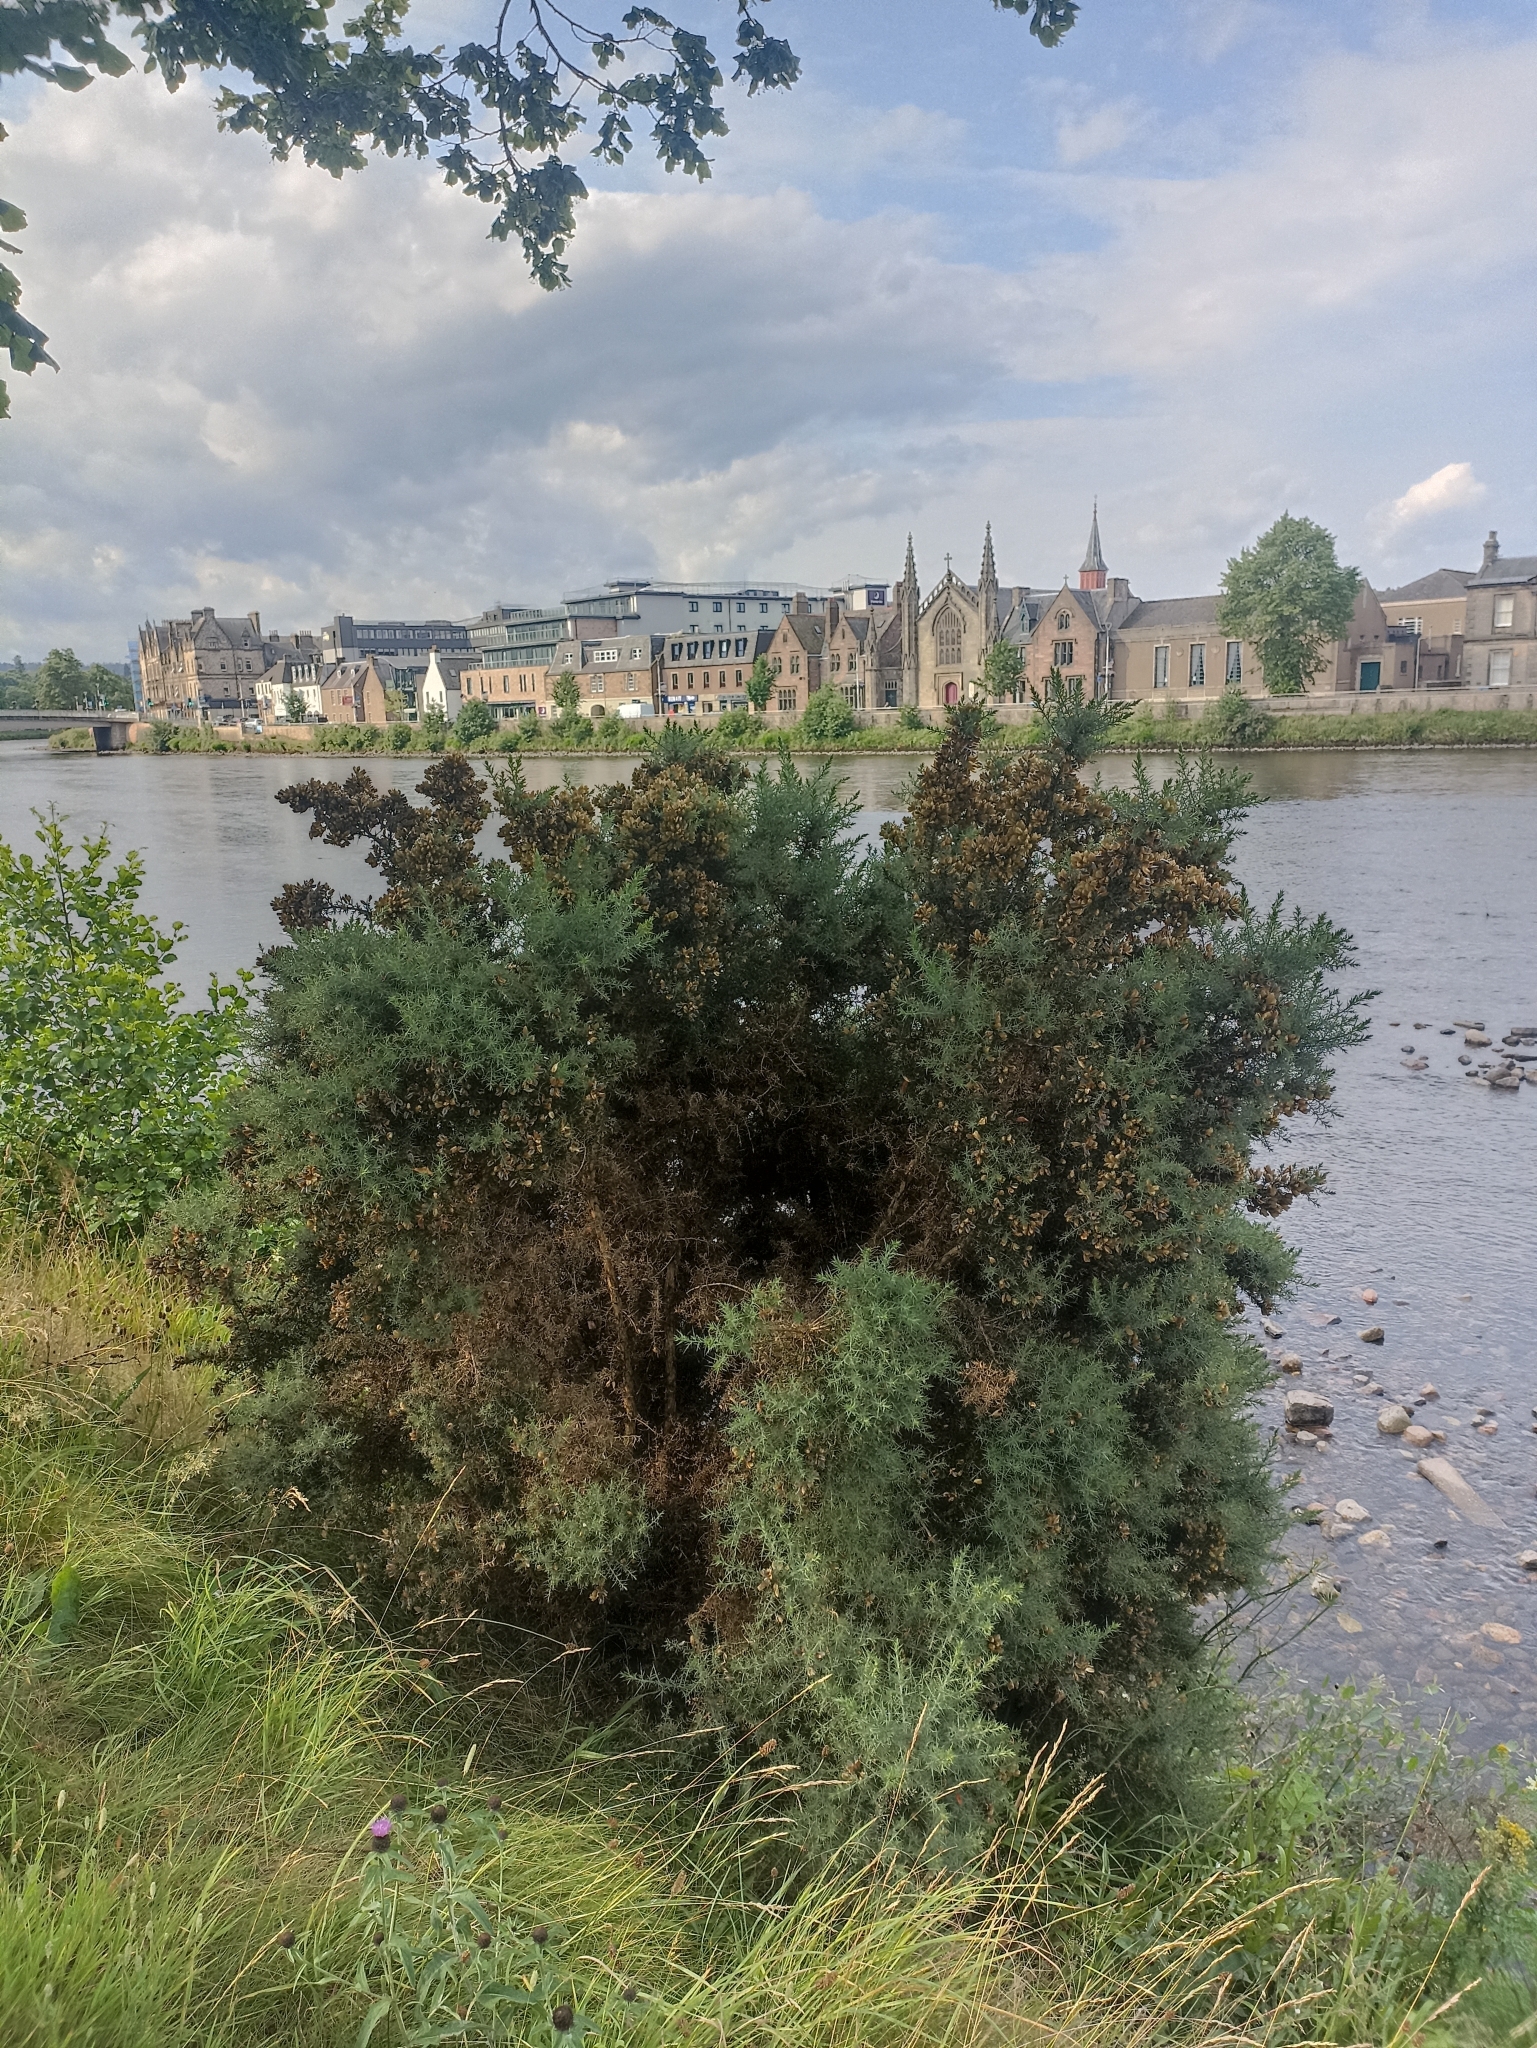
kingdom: Plantae
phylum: Tracheophyta
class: Magnoliopsida
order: Fabales
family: Fabaceae
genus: Ulex
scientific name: Ulex europaeus
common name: Common gorse
